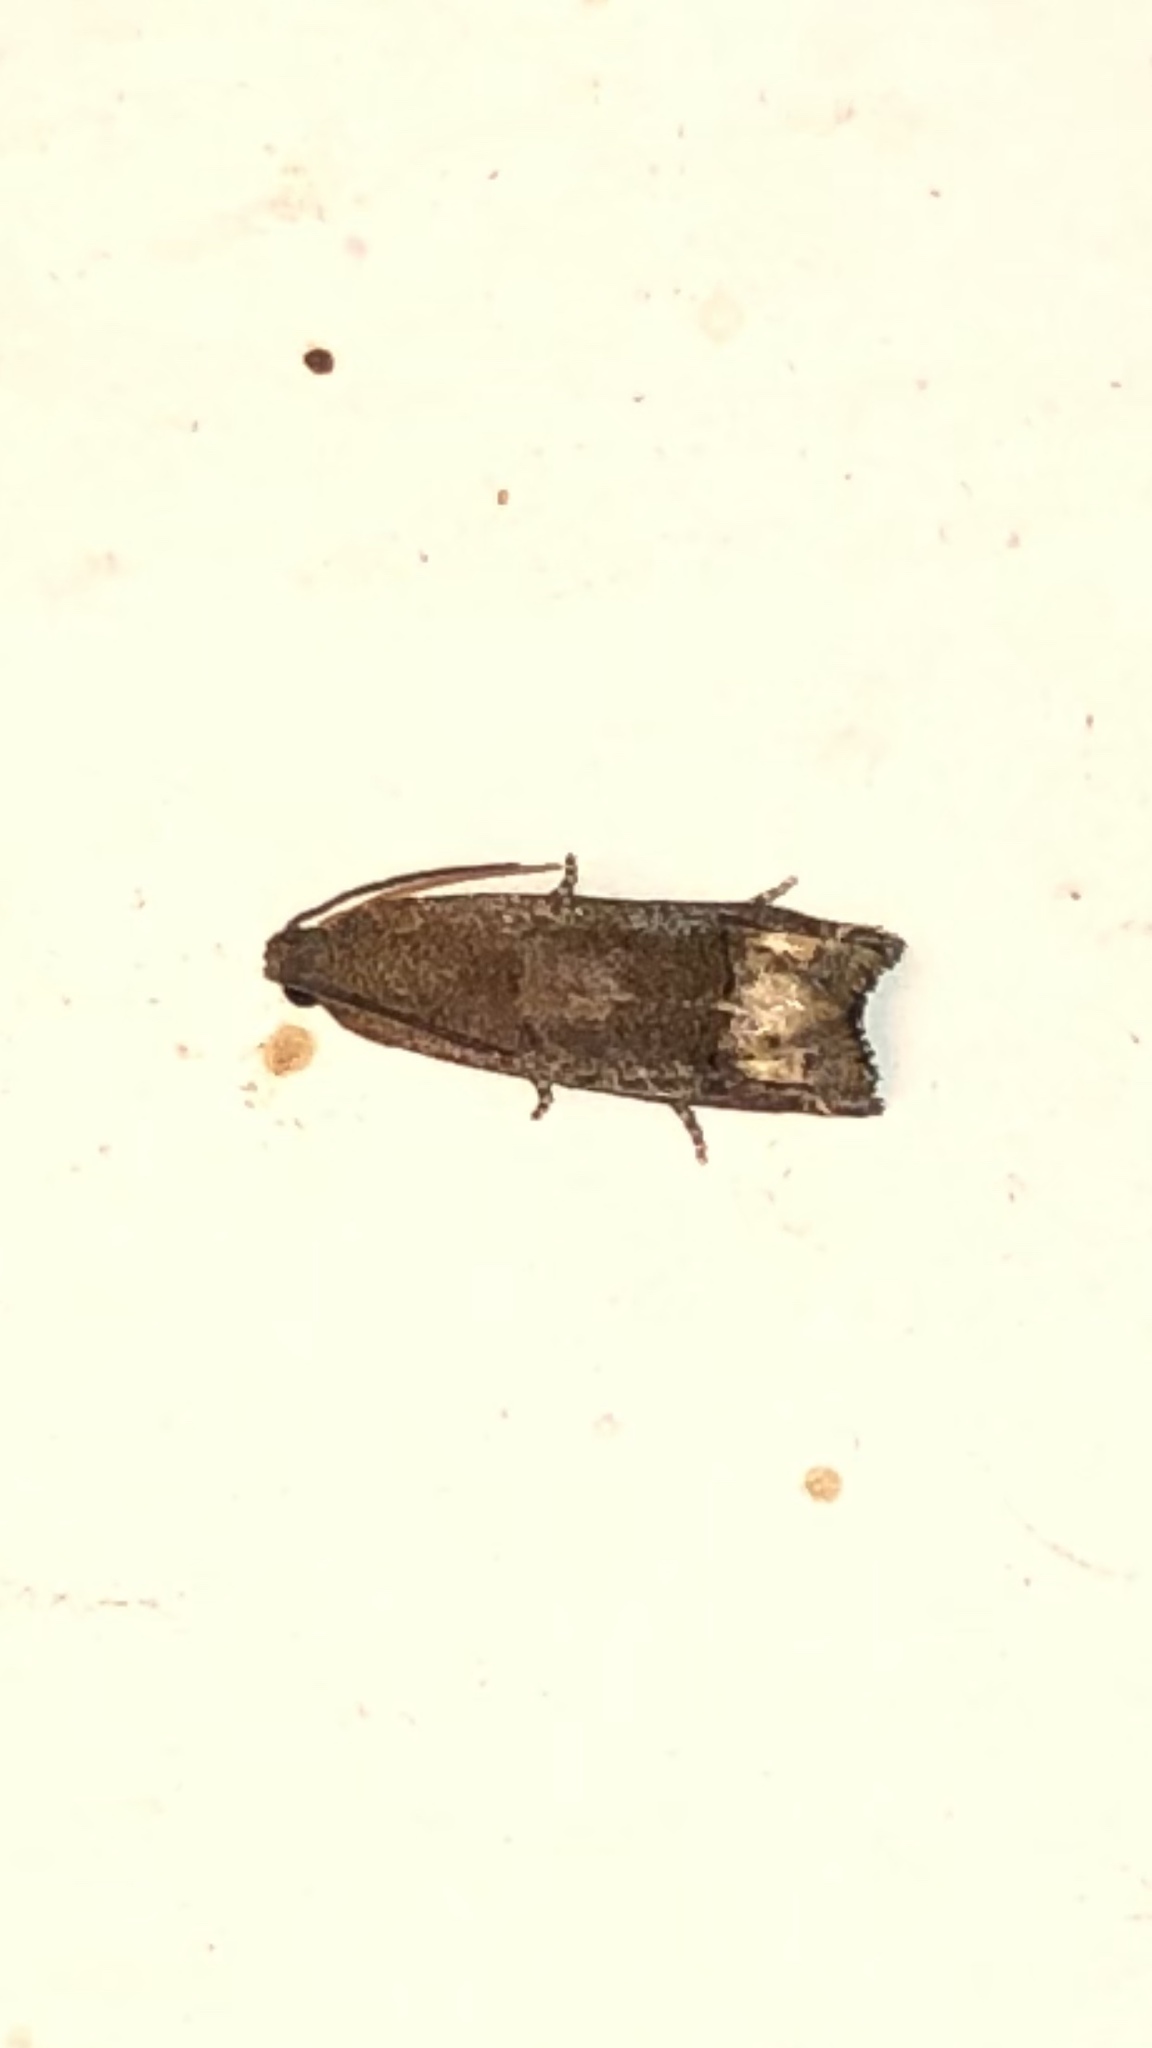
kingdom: Animalia
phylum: Arthropoda
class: Insecta
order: Lepidoptera
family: Tortricidae
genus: Epiblema
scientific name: Epiblema strenuana
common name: Ragweed borer moth
